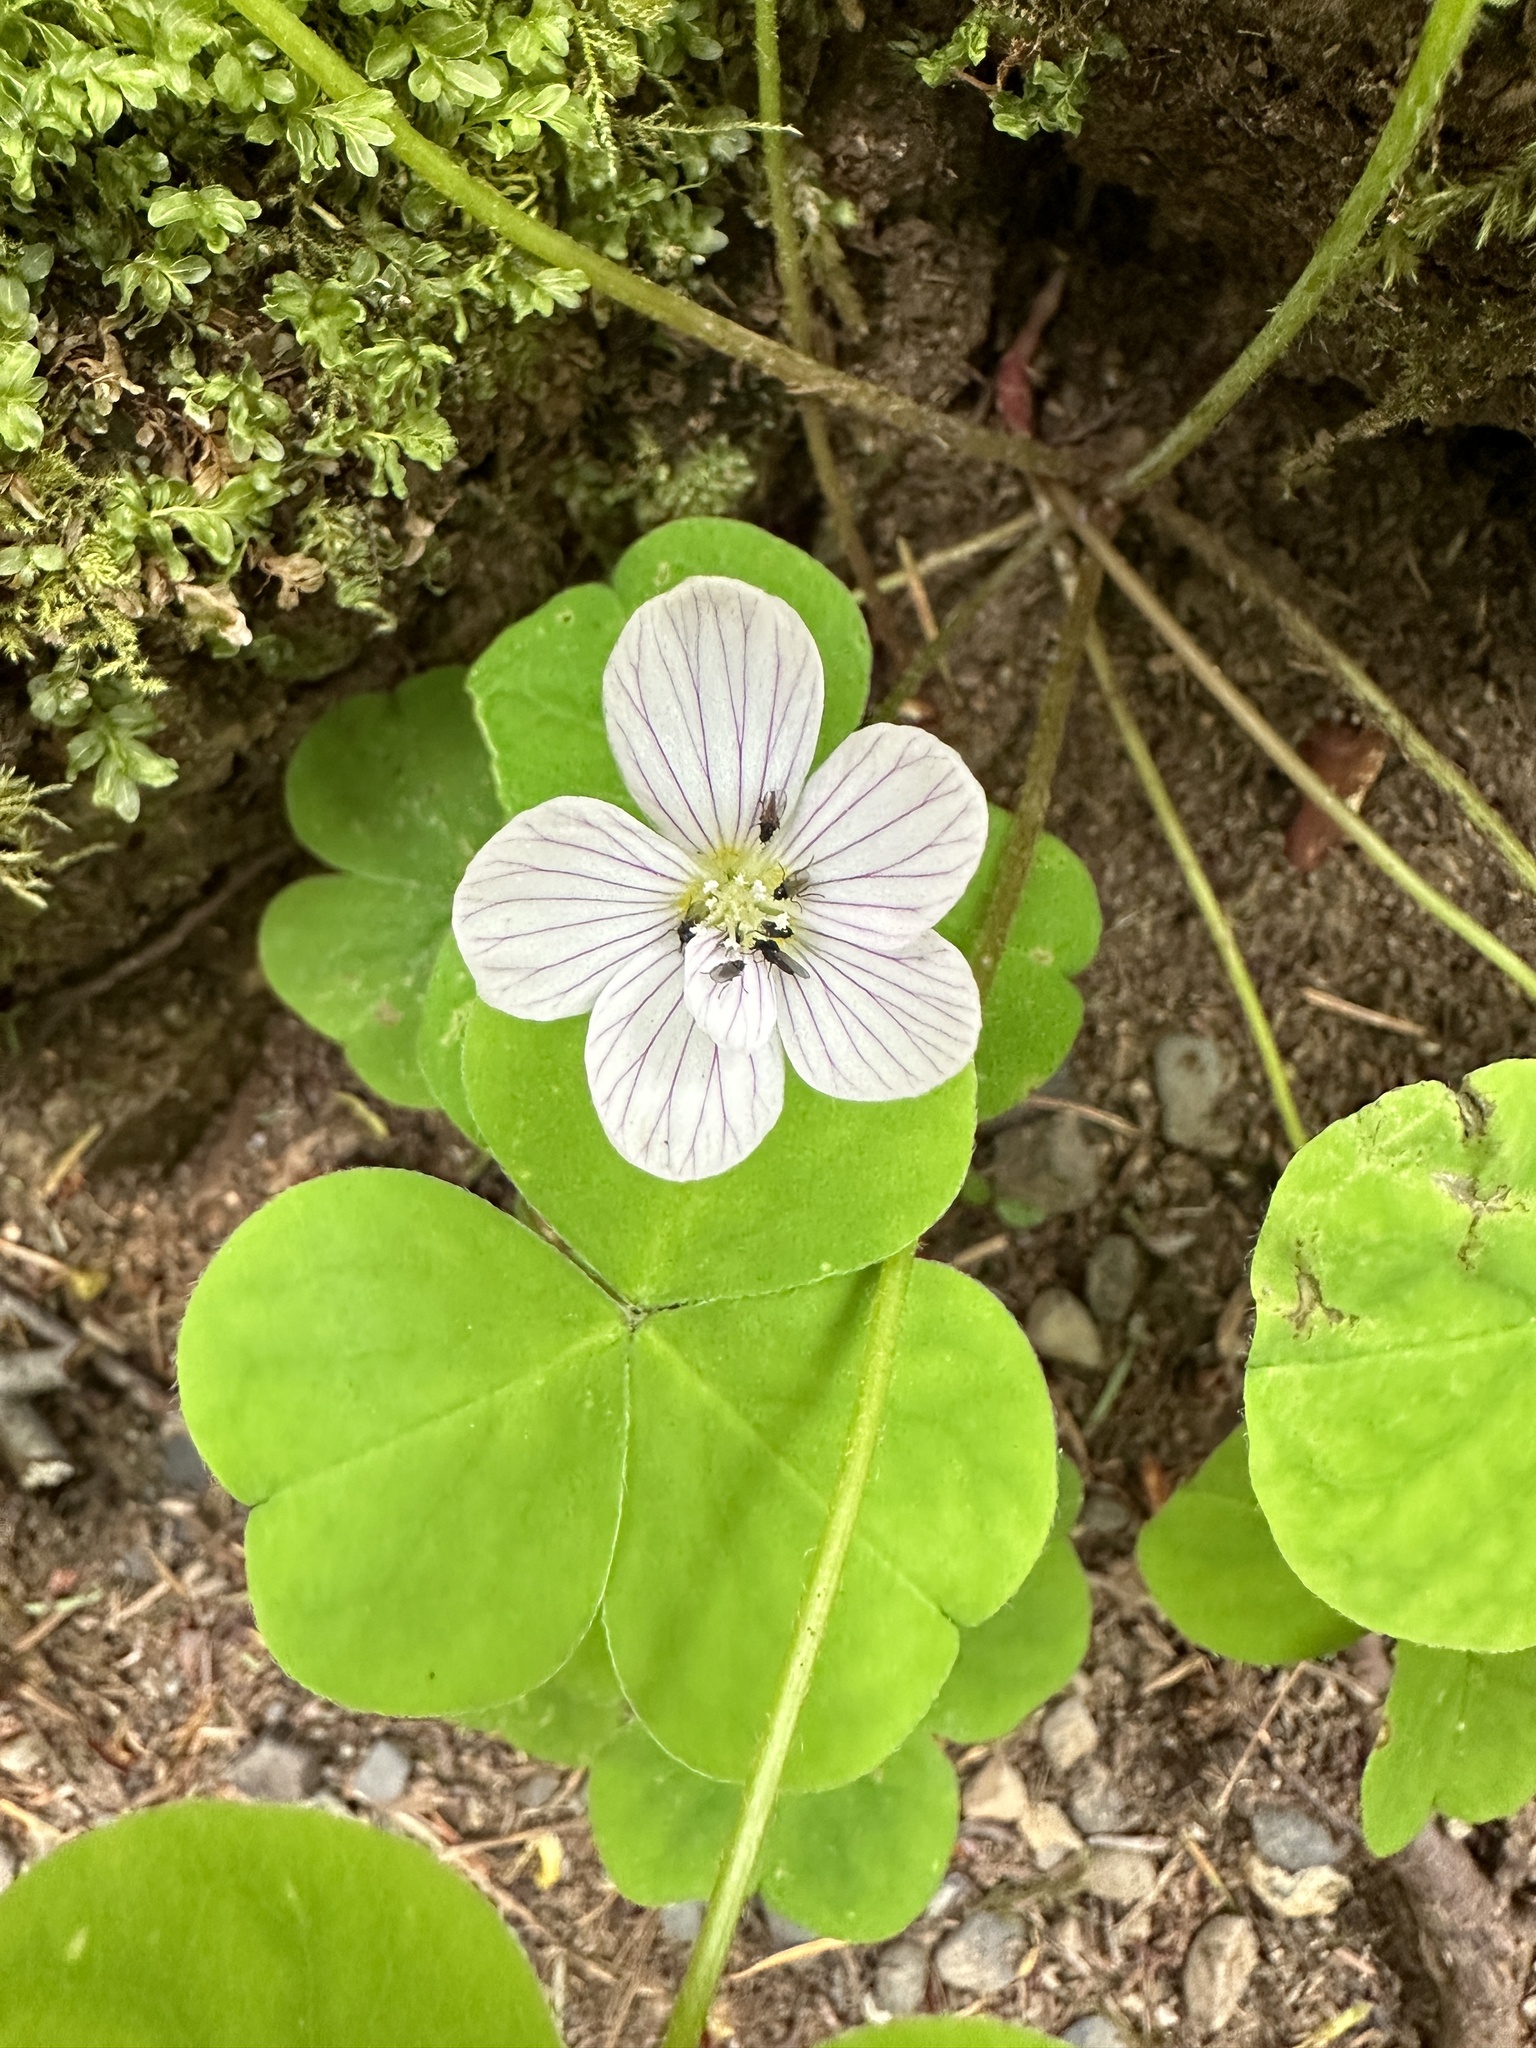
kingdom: Plantae
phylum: Tracheophyta
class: Magnoliopsida
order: Oxalidales
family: Oxalidaceae
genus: Oxalis
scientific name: Oxalis oregana
